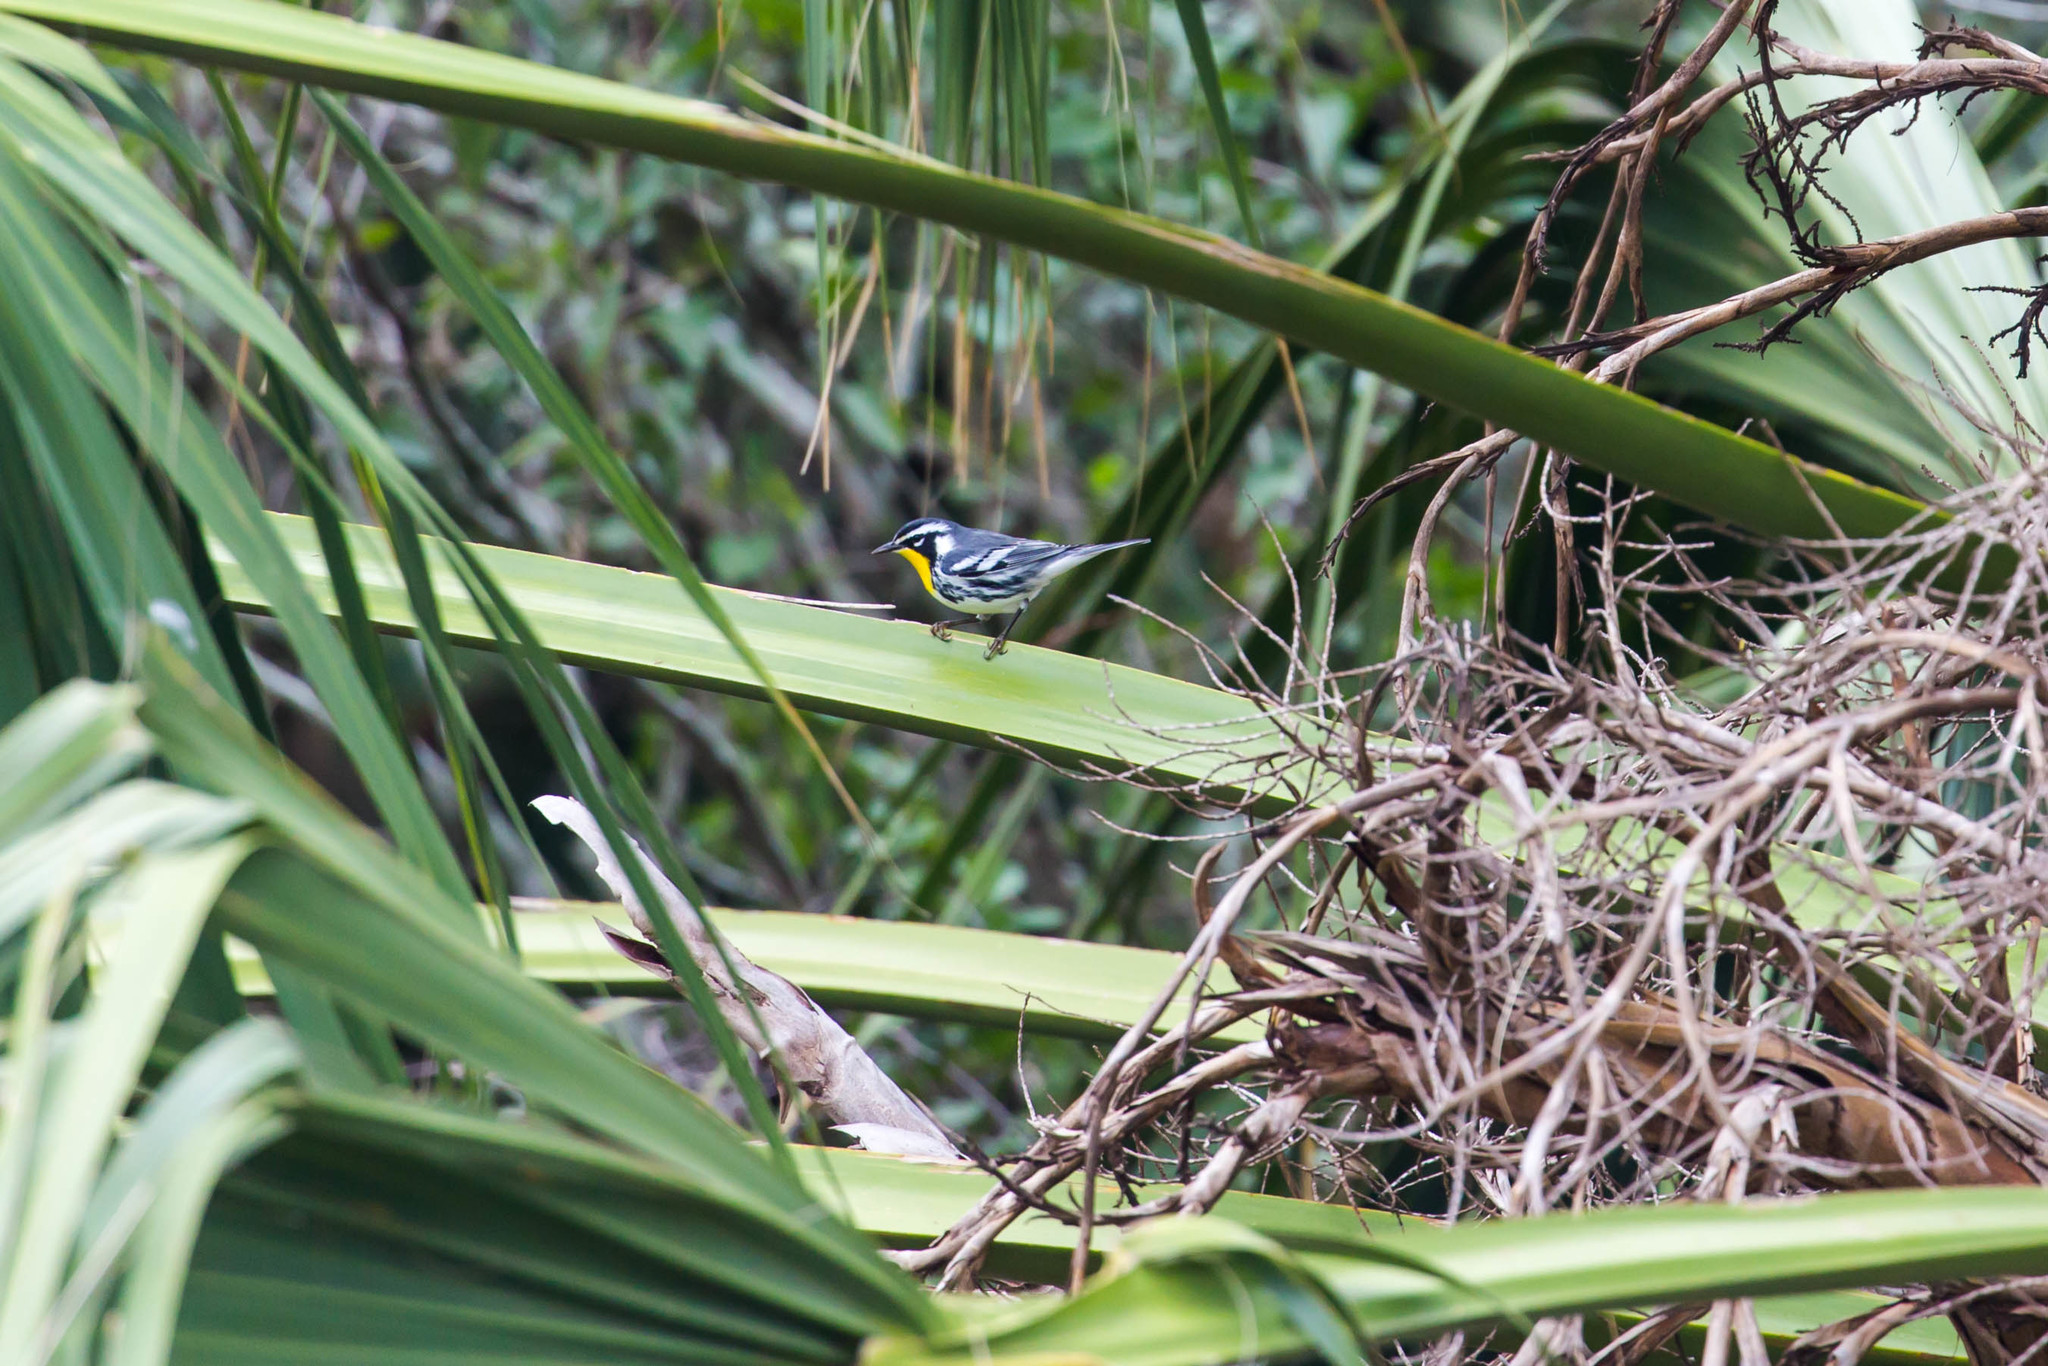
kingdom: Animalia
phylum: Chordata
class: Aves
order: Passeriformes
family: Parulidae
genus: Setophaga
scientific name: Setophaga dominica
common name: Yellow-throated warbler
